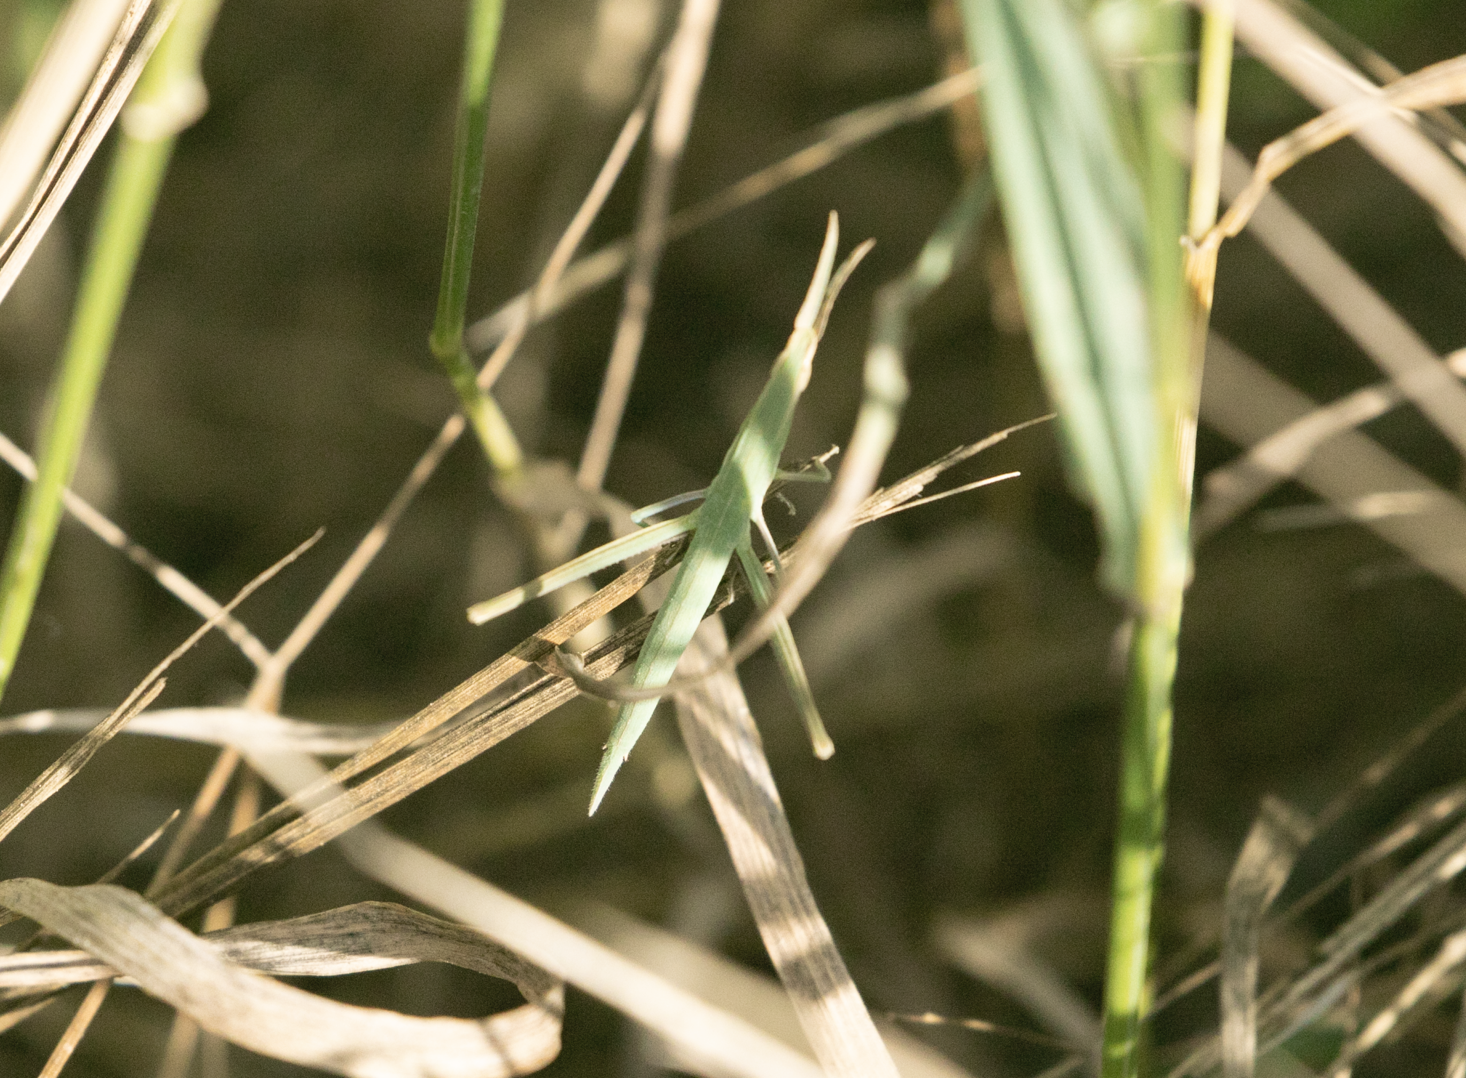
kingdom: Animalia
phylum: Arthropoda
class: Insecta
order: Orthoptera
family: Acrididae
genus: Acrida
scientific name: Acrida ungarica
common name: Common cone-headed grasshopper
